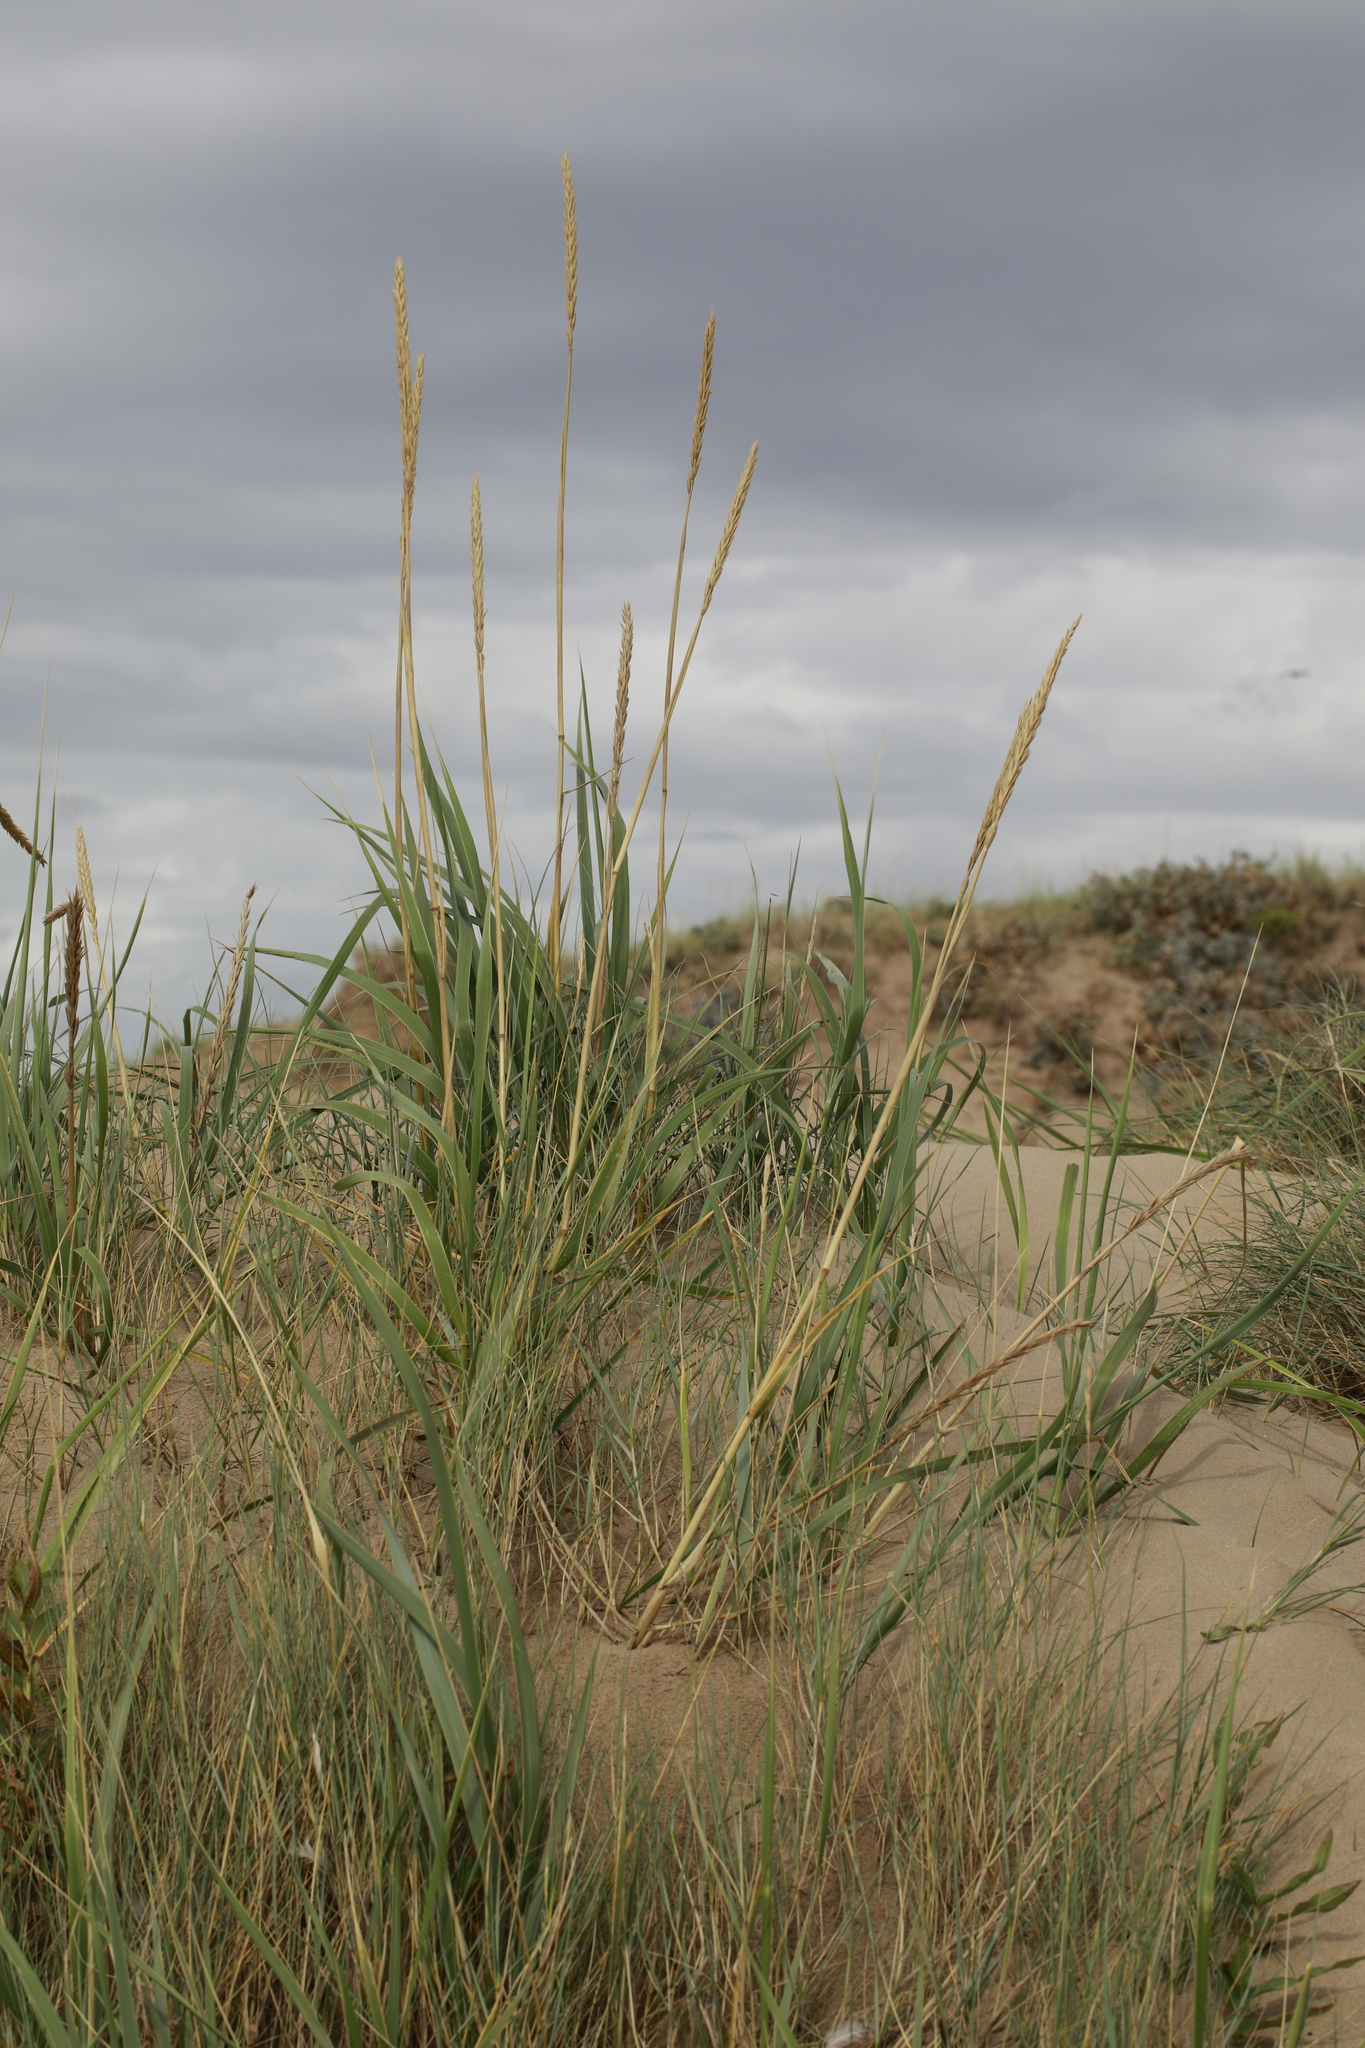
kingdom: Plantae
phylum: Tracheophyta
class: Liliopsida
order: Poales
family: Poaceae
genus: Calamagrostis
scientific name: Calamagrostis arenaria
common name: European beachgrass
